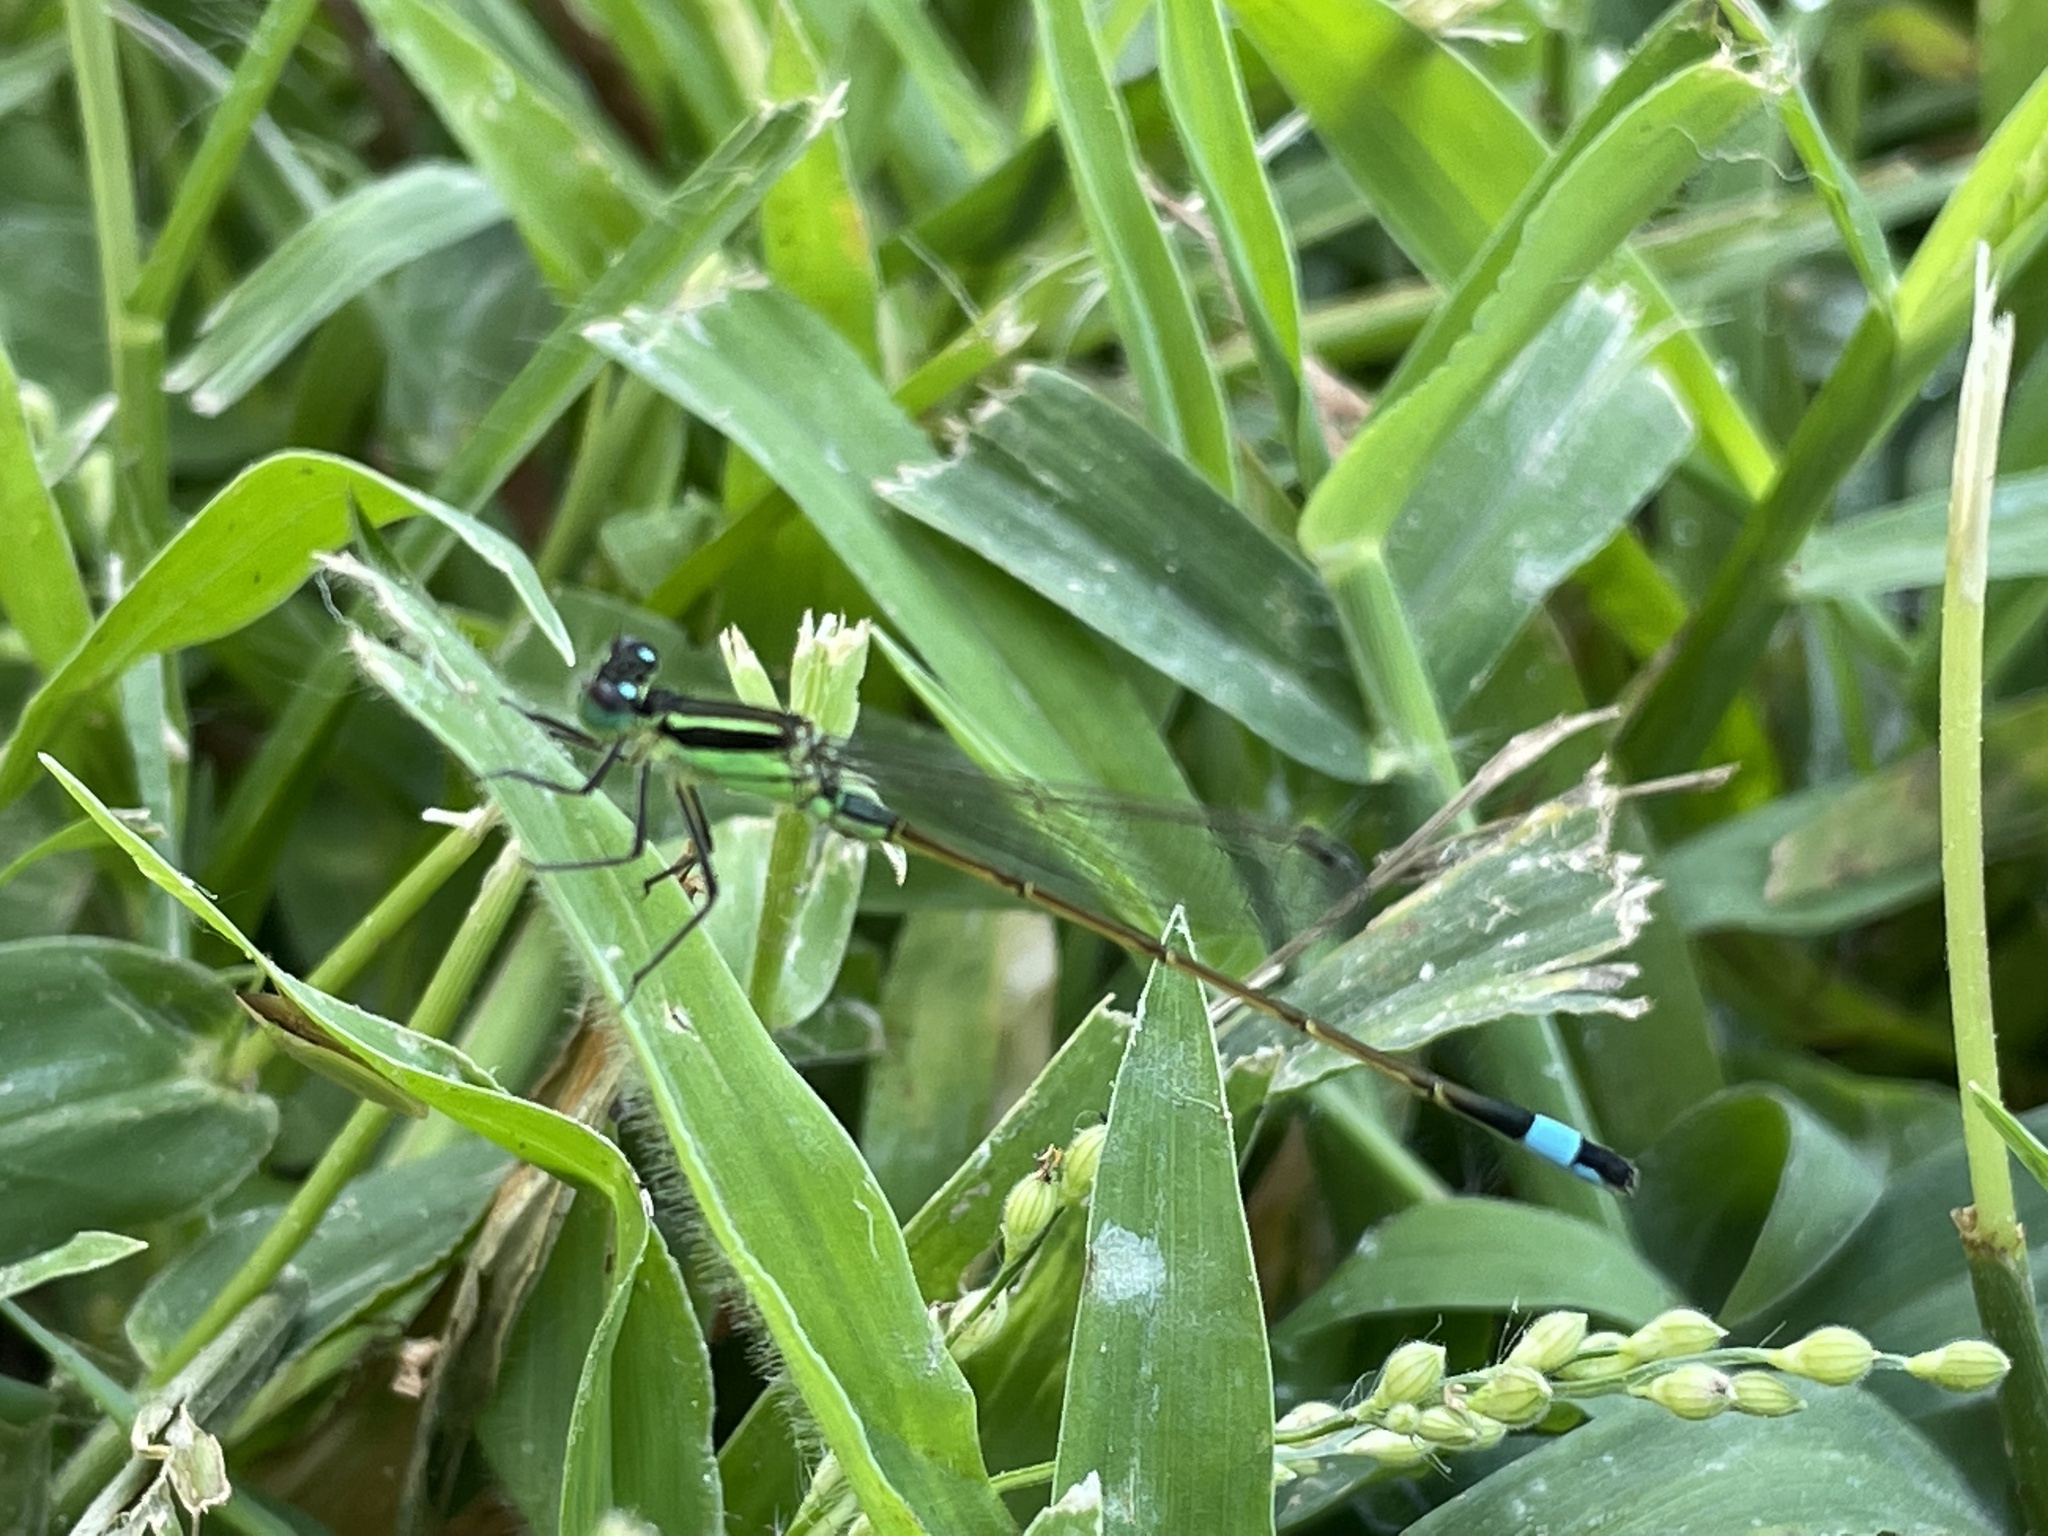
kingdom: Animalia
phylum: Arthropoda
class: Insecta
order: Odonata
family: Coenagrionidae
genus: Ischnura
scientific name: Ischnura ramburii
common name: Rambur's forktail
